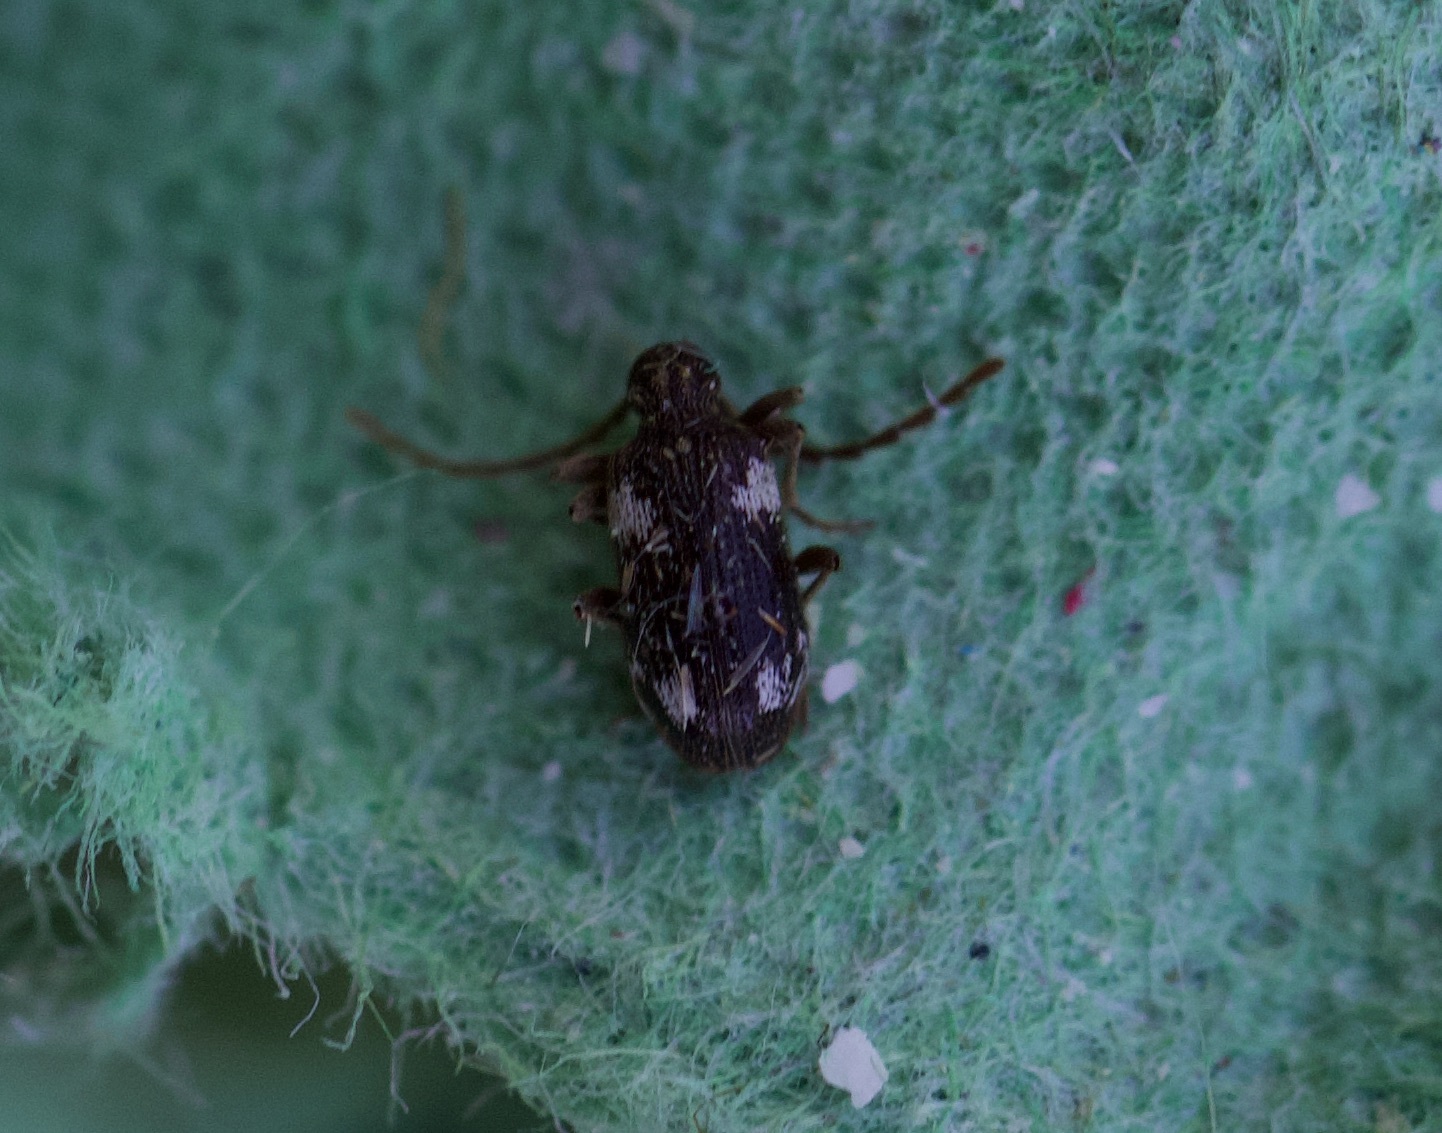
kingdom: Animalia
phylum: Arthropoda
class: Insecta
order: Coleoptera
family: Ptinidae
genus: Ptinus
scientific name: Ptinus sexpunctatus
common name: Six-spotted spider beetle
